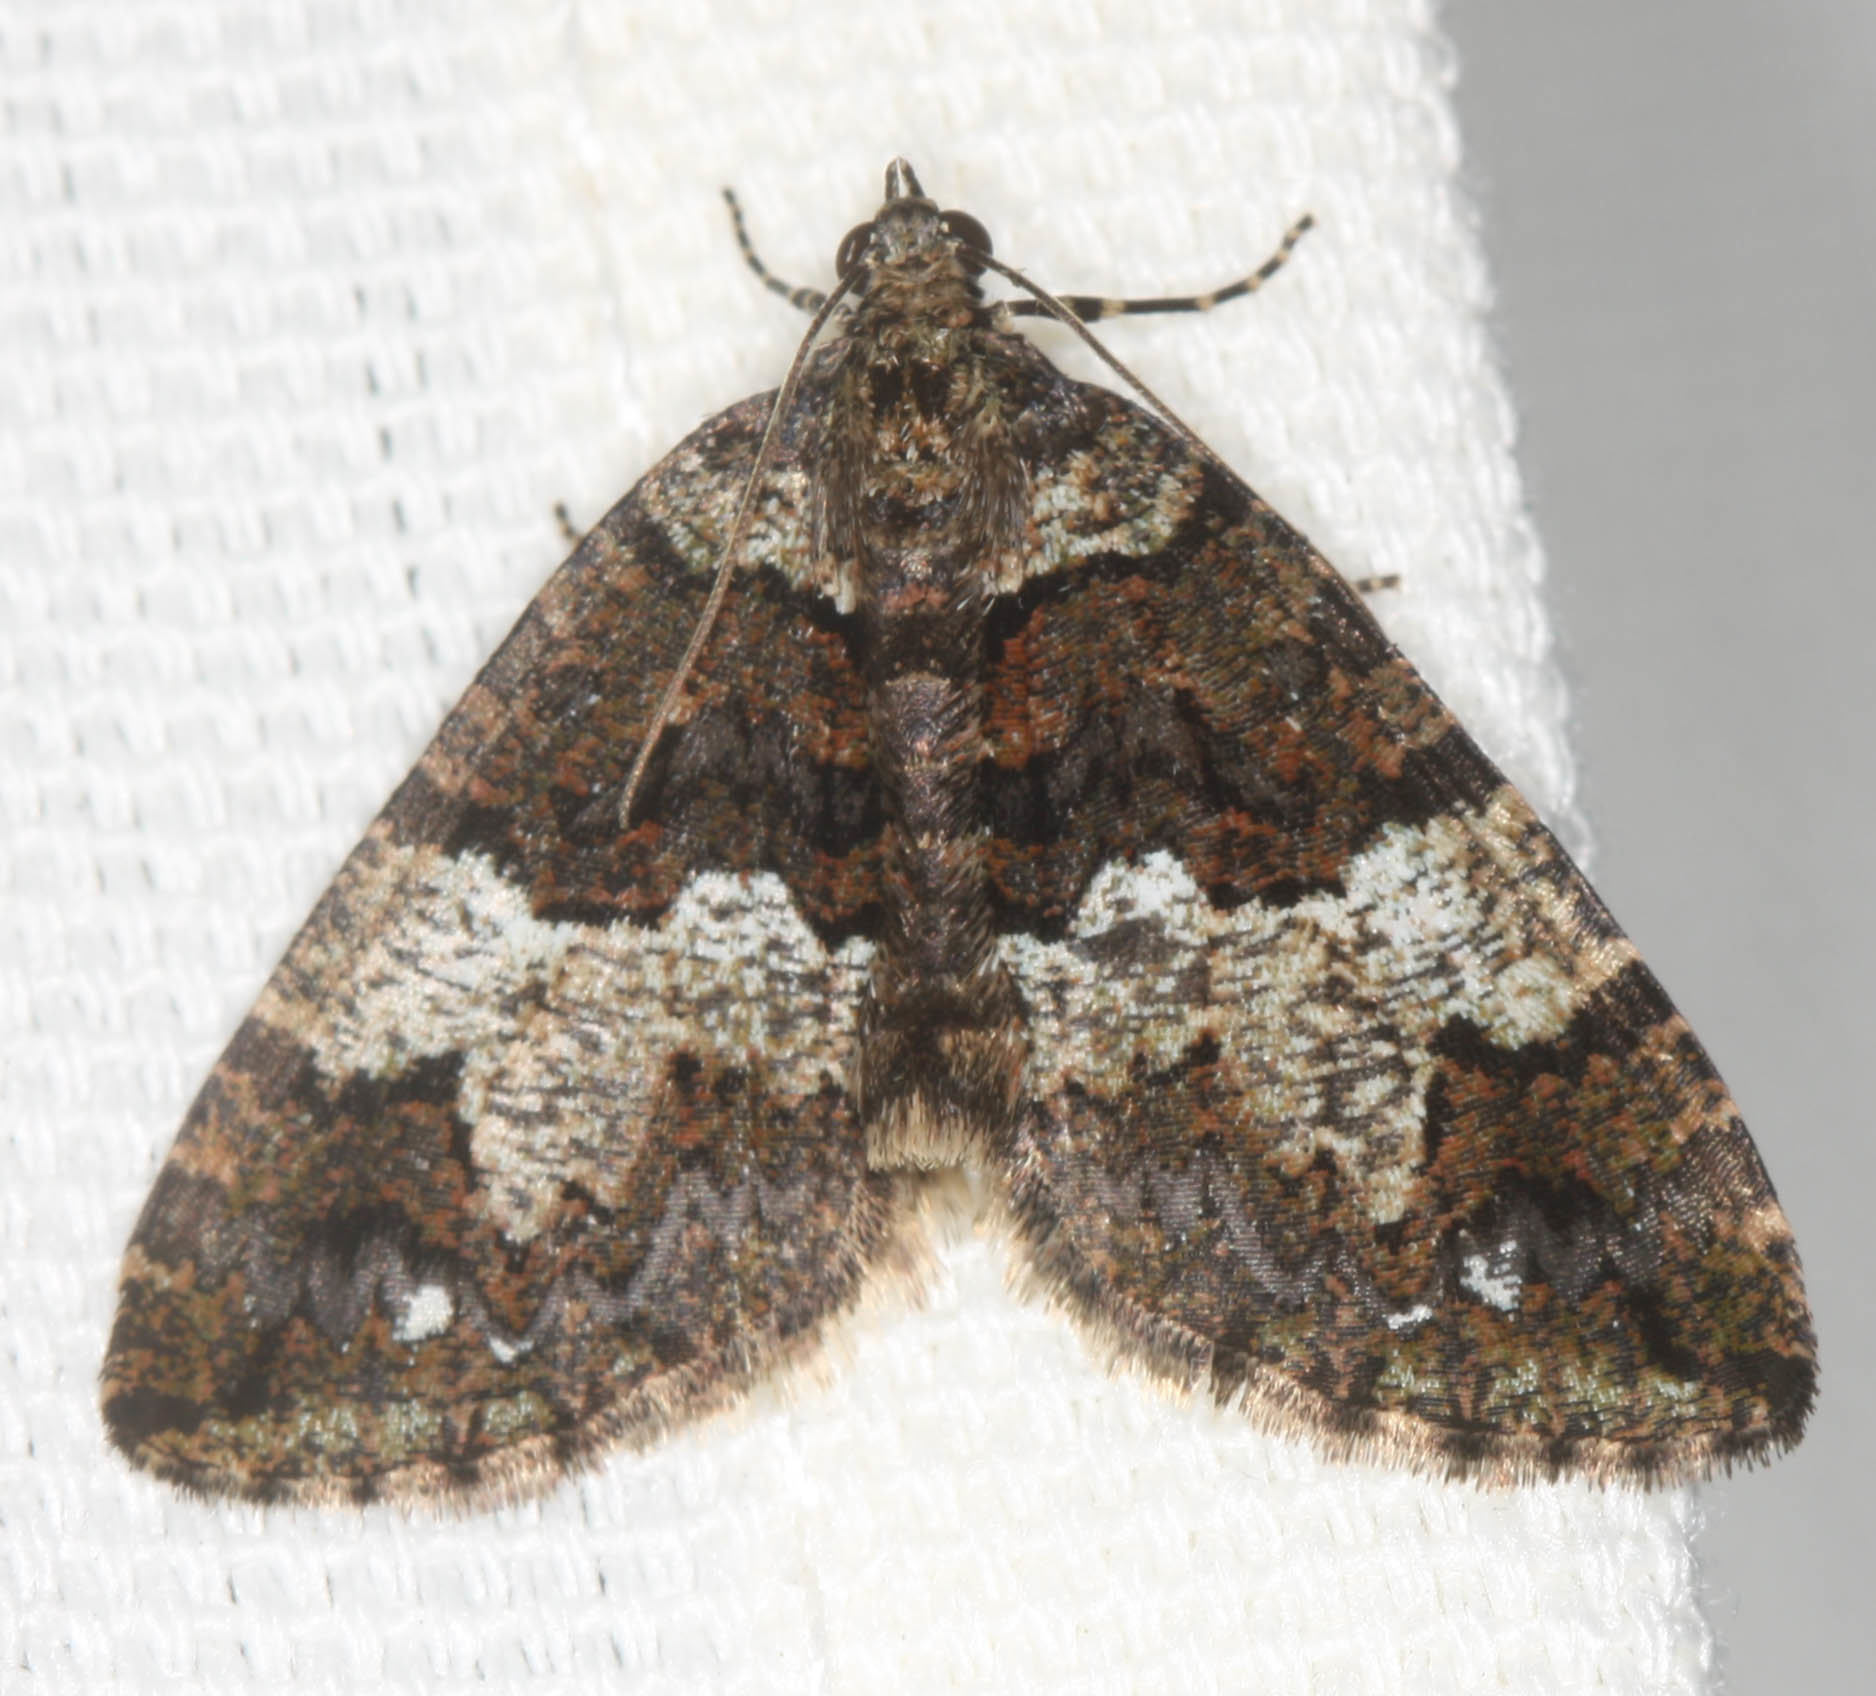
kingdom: Animalia
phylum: Arthropoda
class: Insecta
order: Lepidoptera
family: Geometridae
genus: Hydriomena
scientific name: Hydriomena albifasciata
